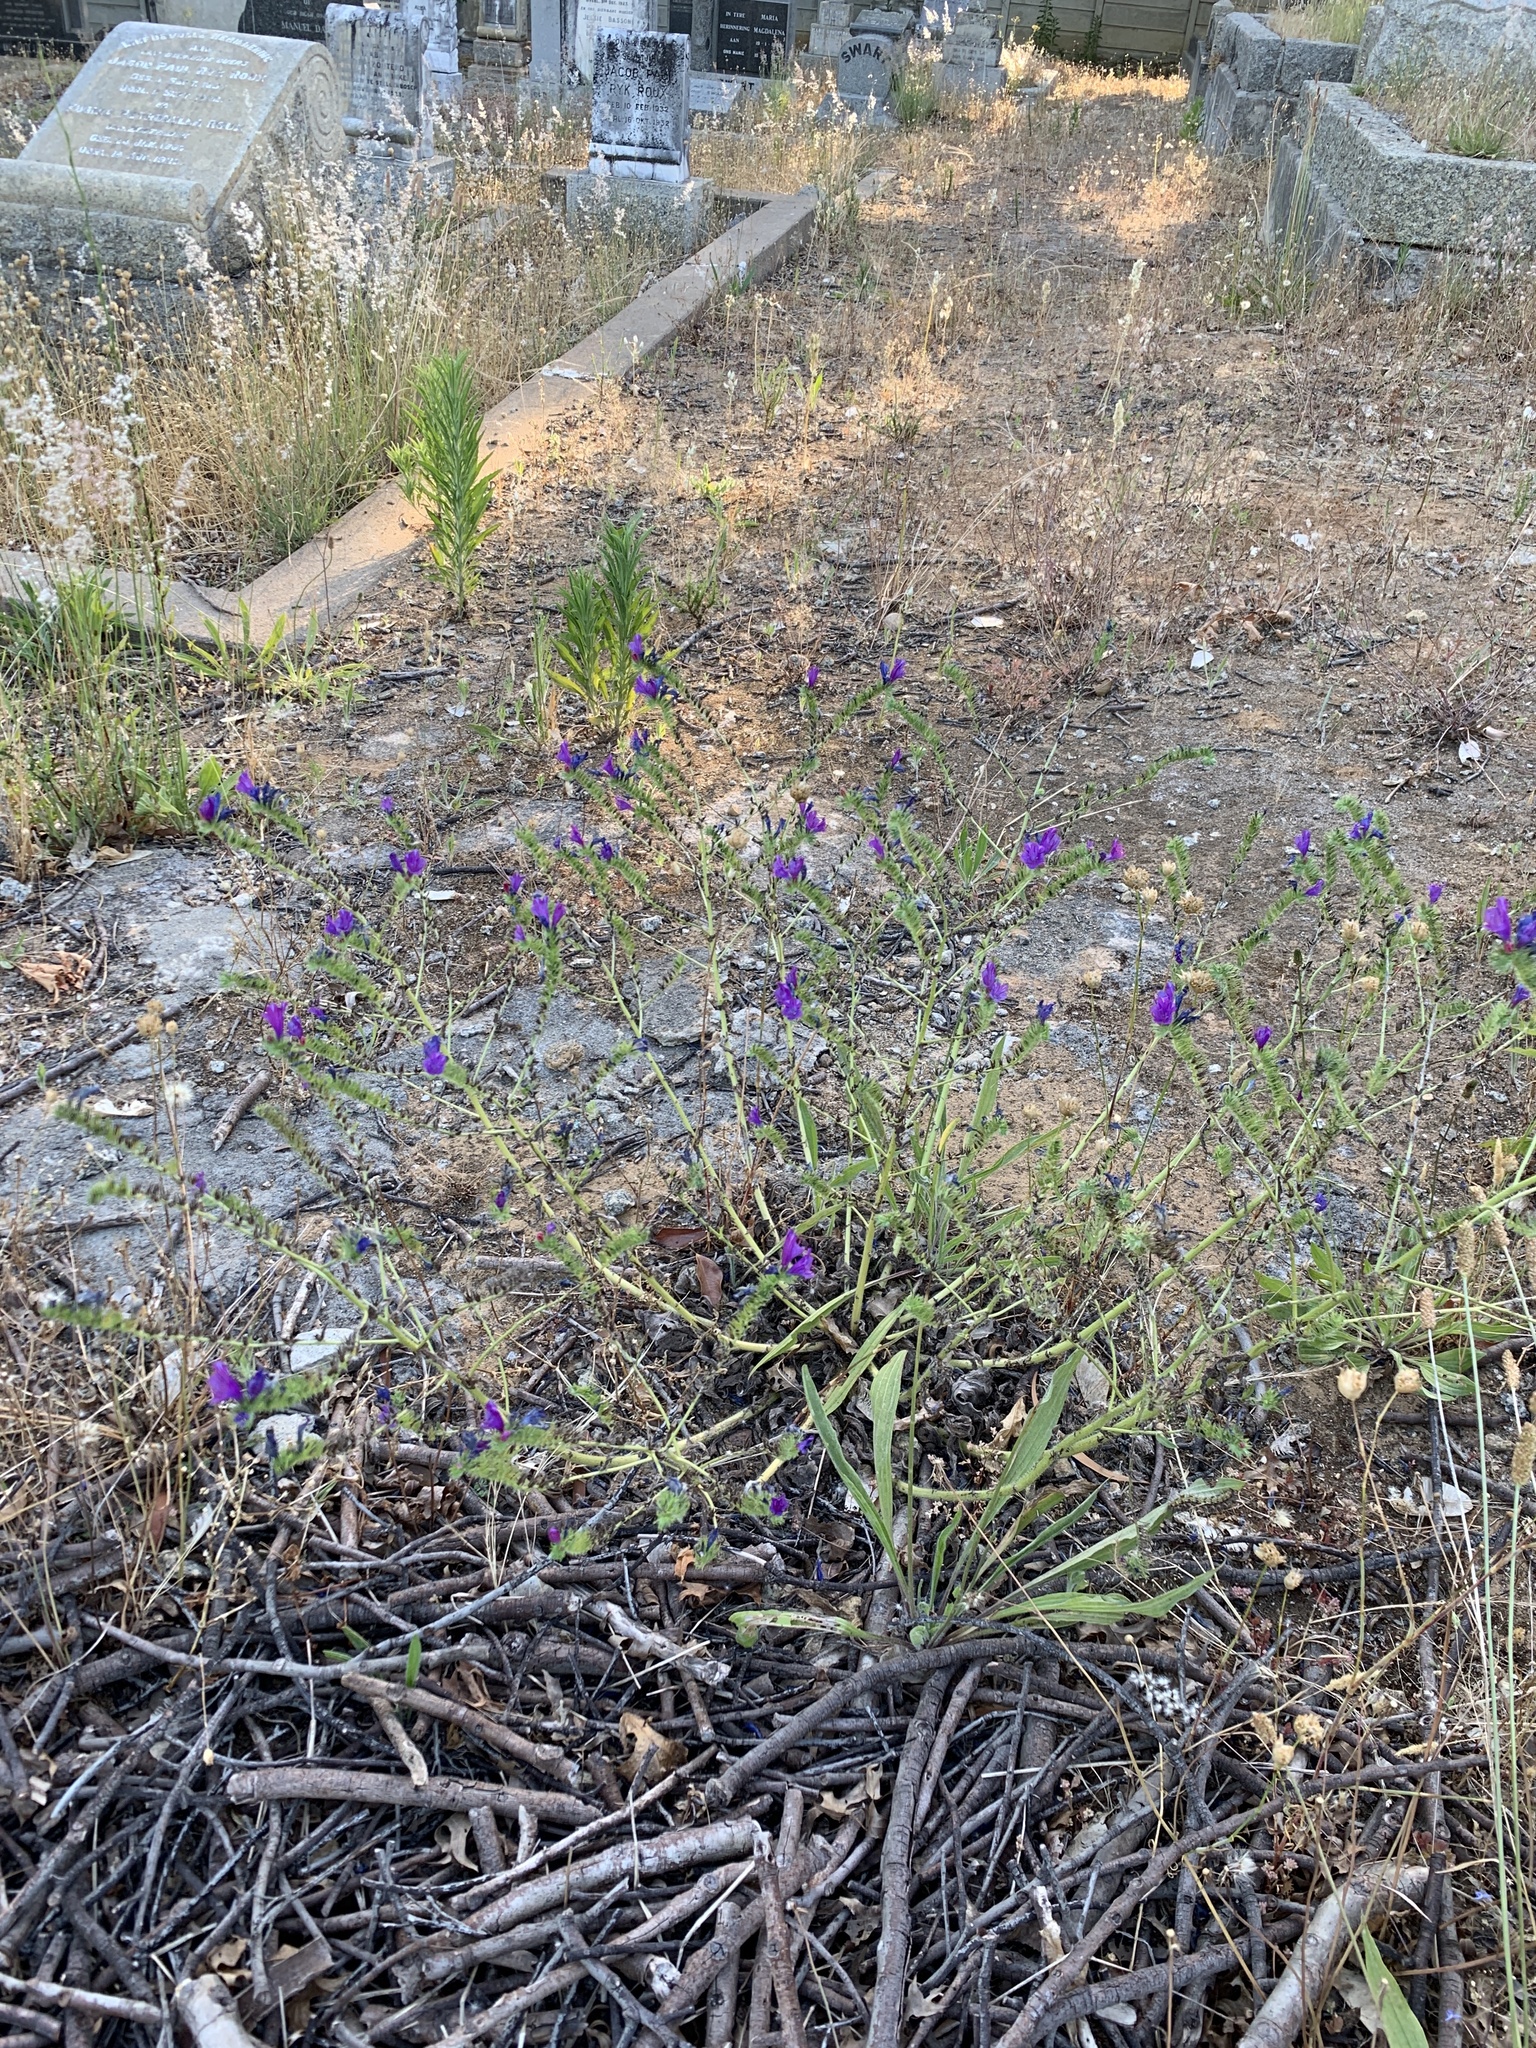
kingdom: Plantae
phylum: Tracheophyta
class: Magnoliopsida
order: Boraginales
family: Boraginaceae
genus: Echium
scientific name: Echium plantagineum
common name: Purple viper's-bugloss
